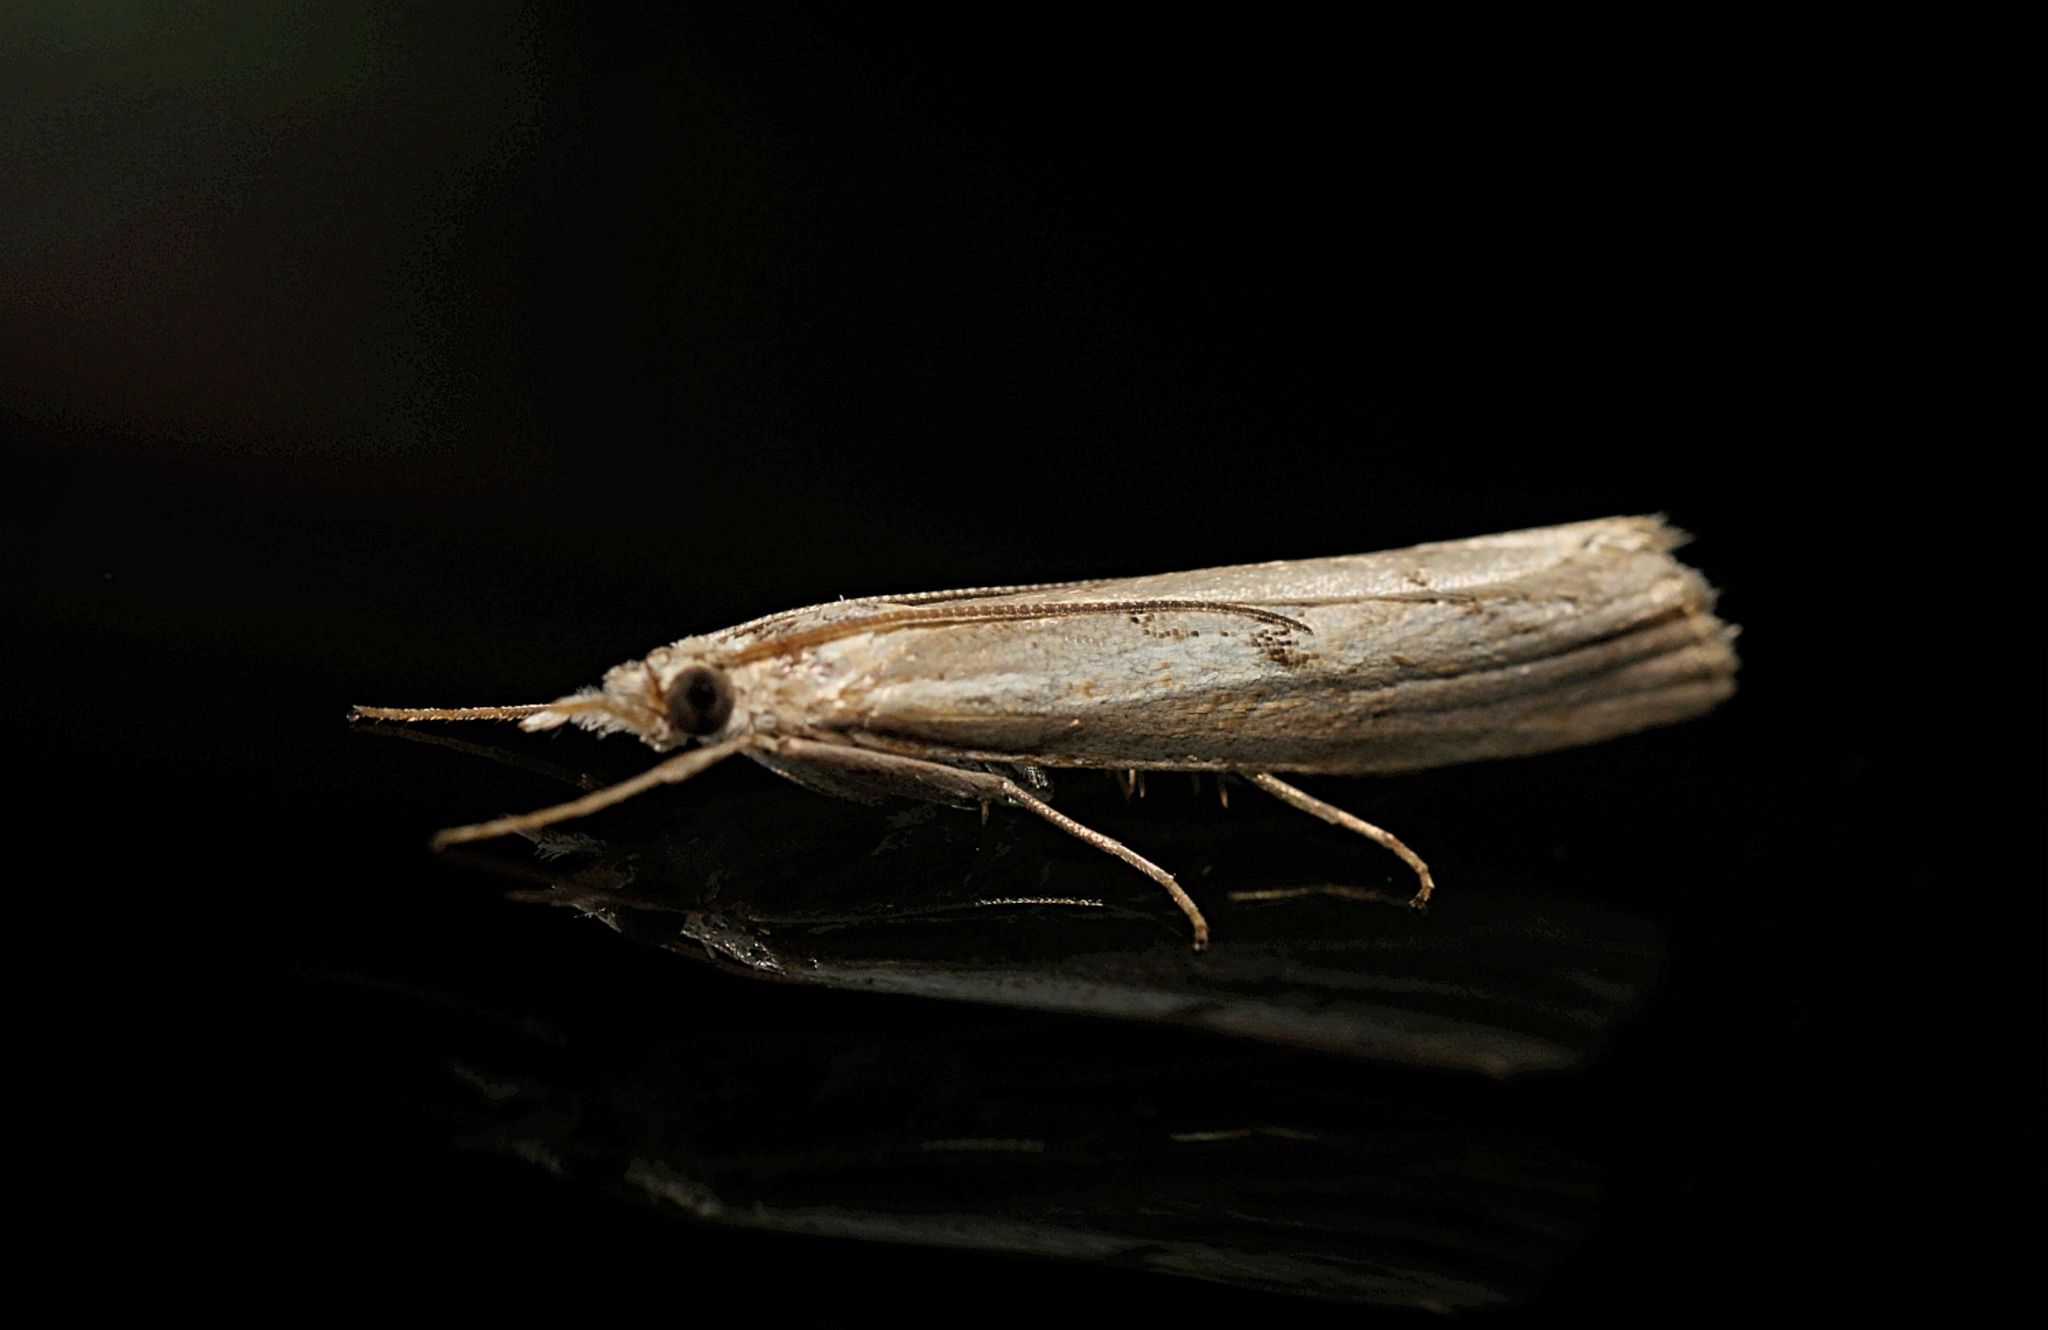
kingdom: Animalia
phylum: Arthropoda
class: Insecta
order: Lepidoptera
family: Crambidae
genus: Agriphila
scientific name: Agriphila geniculea
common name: Elbow-stripe grass-veneer
